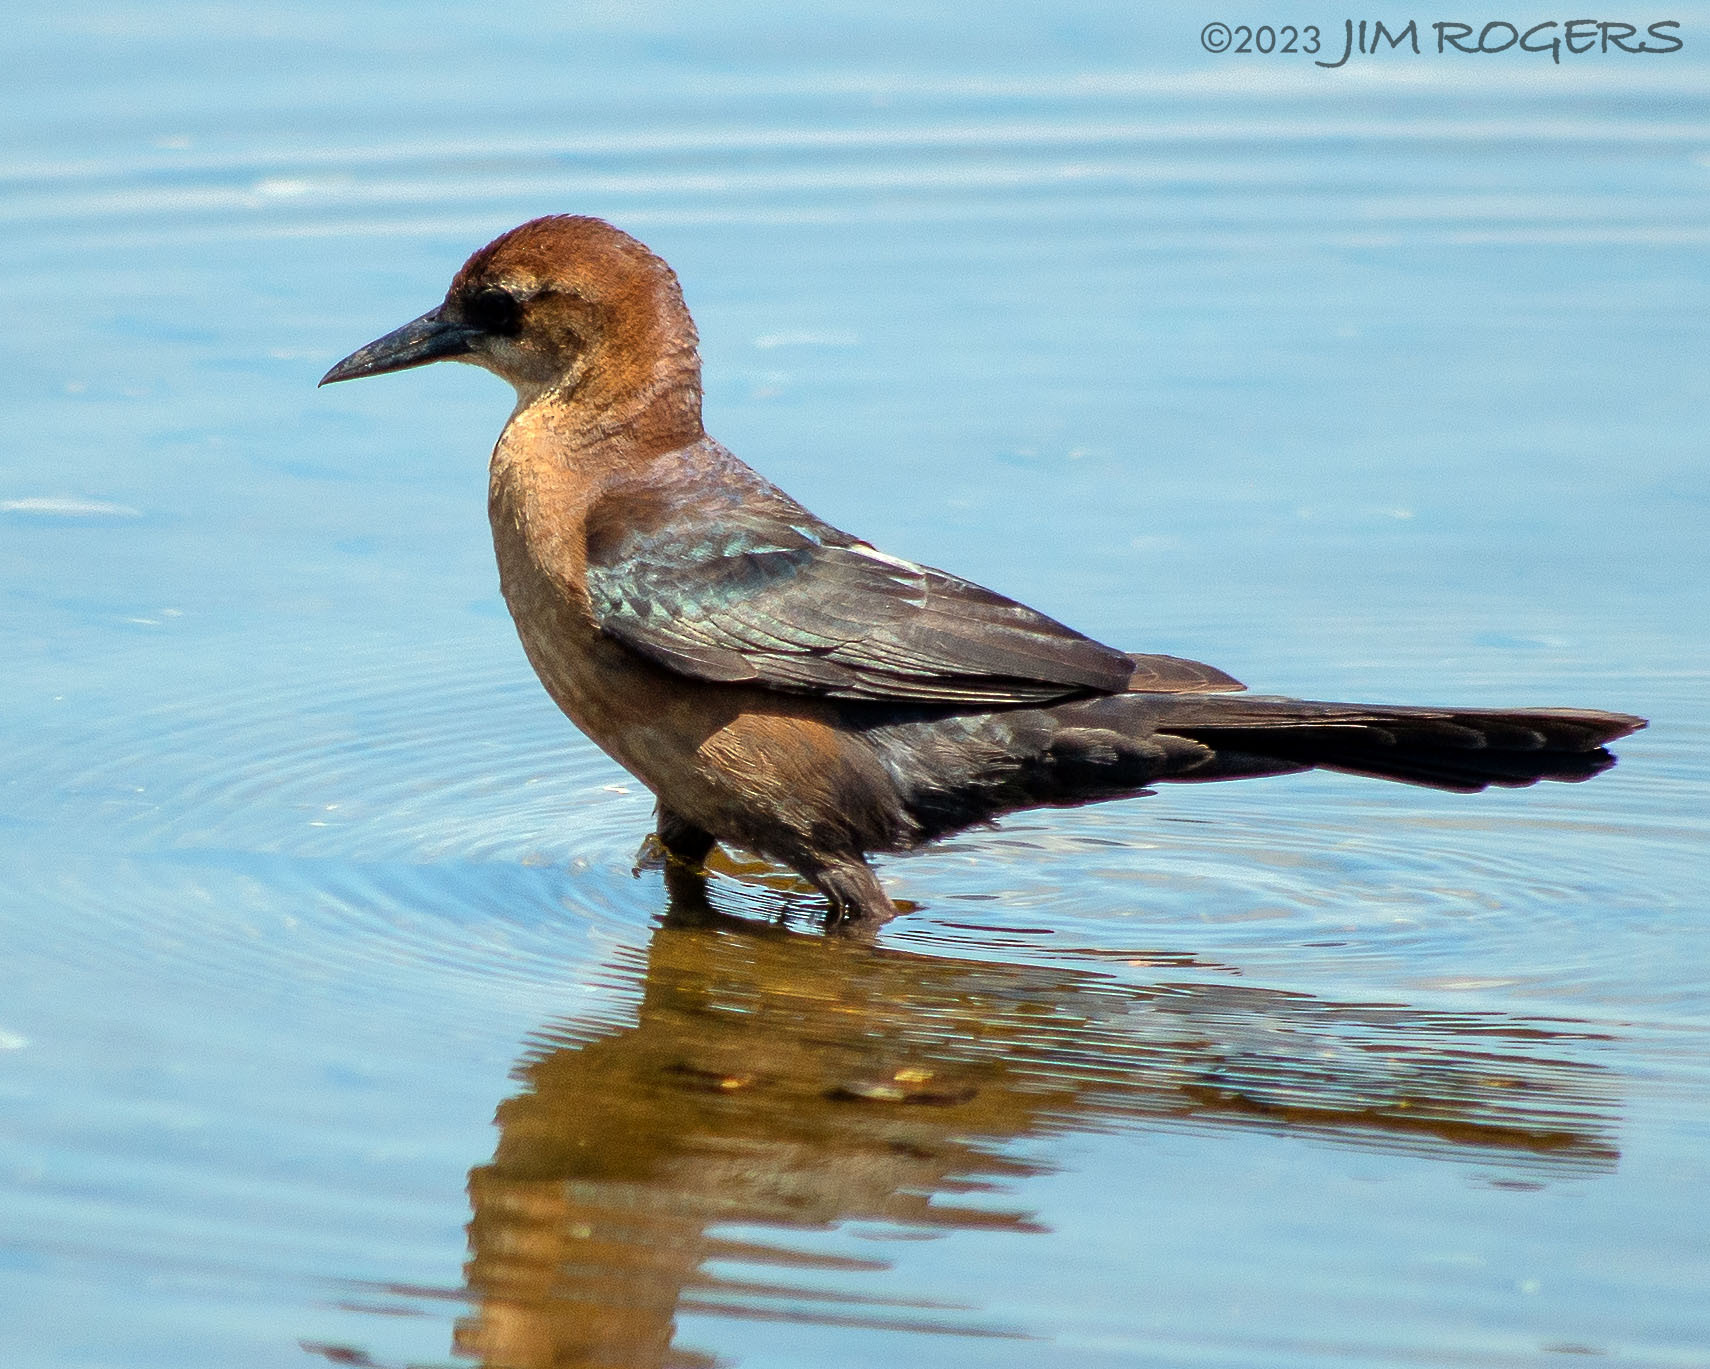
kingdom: Animalia
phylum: Chordata
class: Aves
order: Passeriformes
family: Icteridae
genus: Quiscalus
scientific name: Quiscalus major
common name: Boat-tailed grackle
